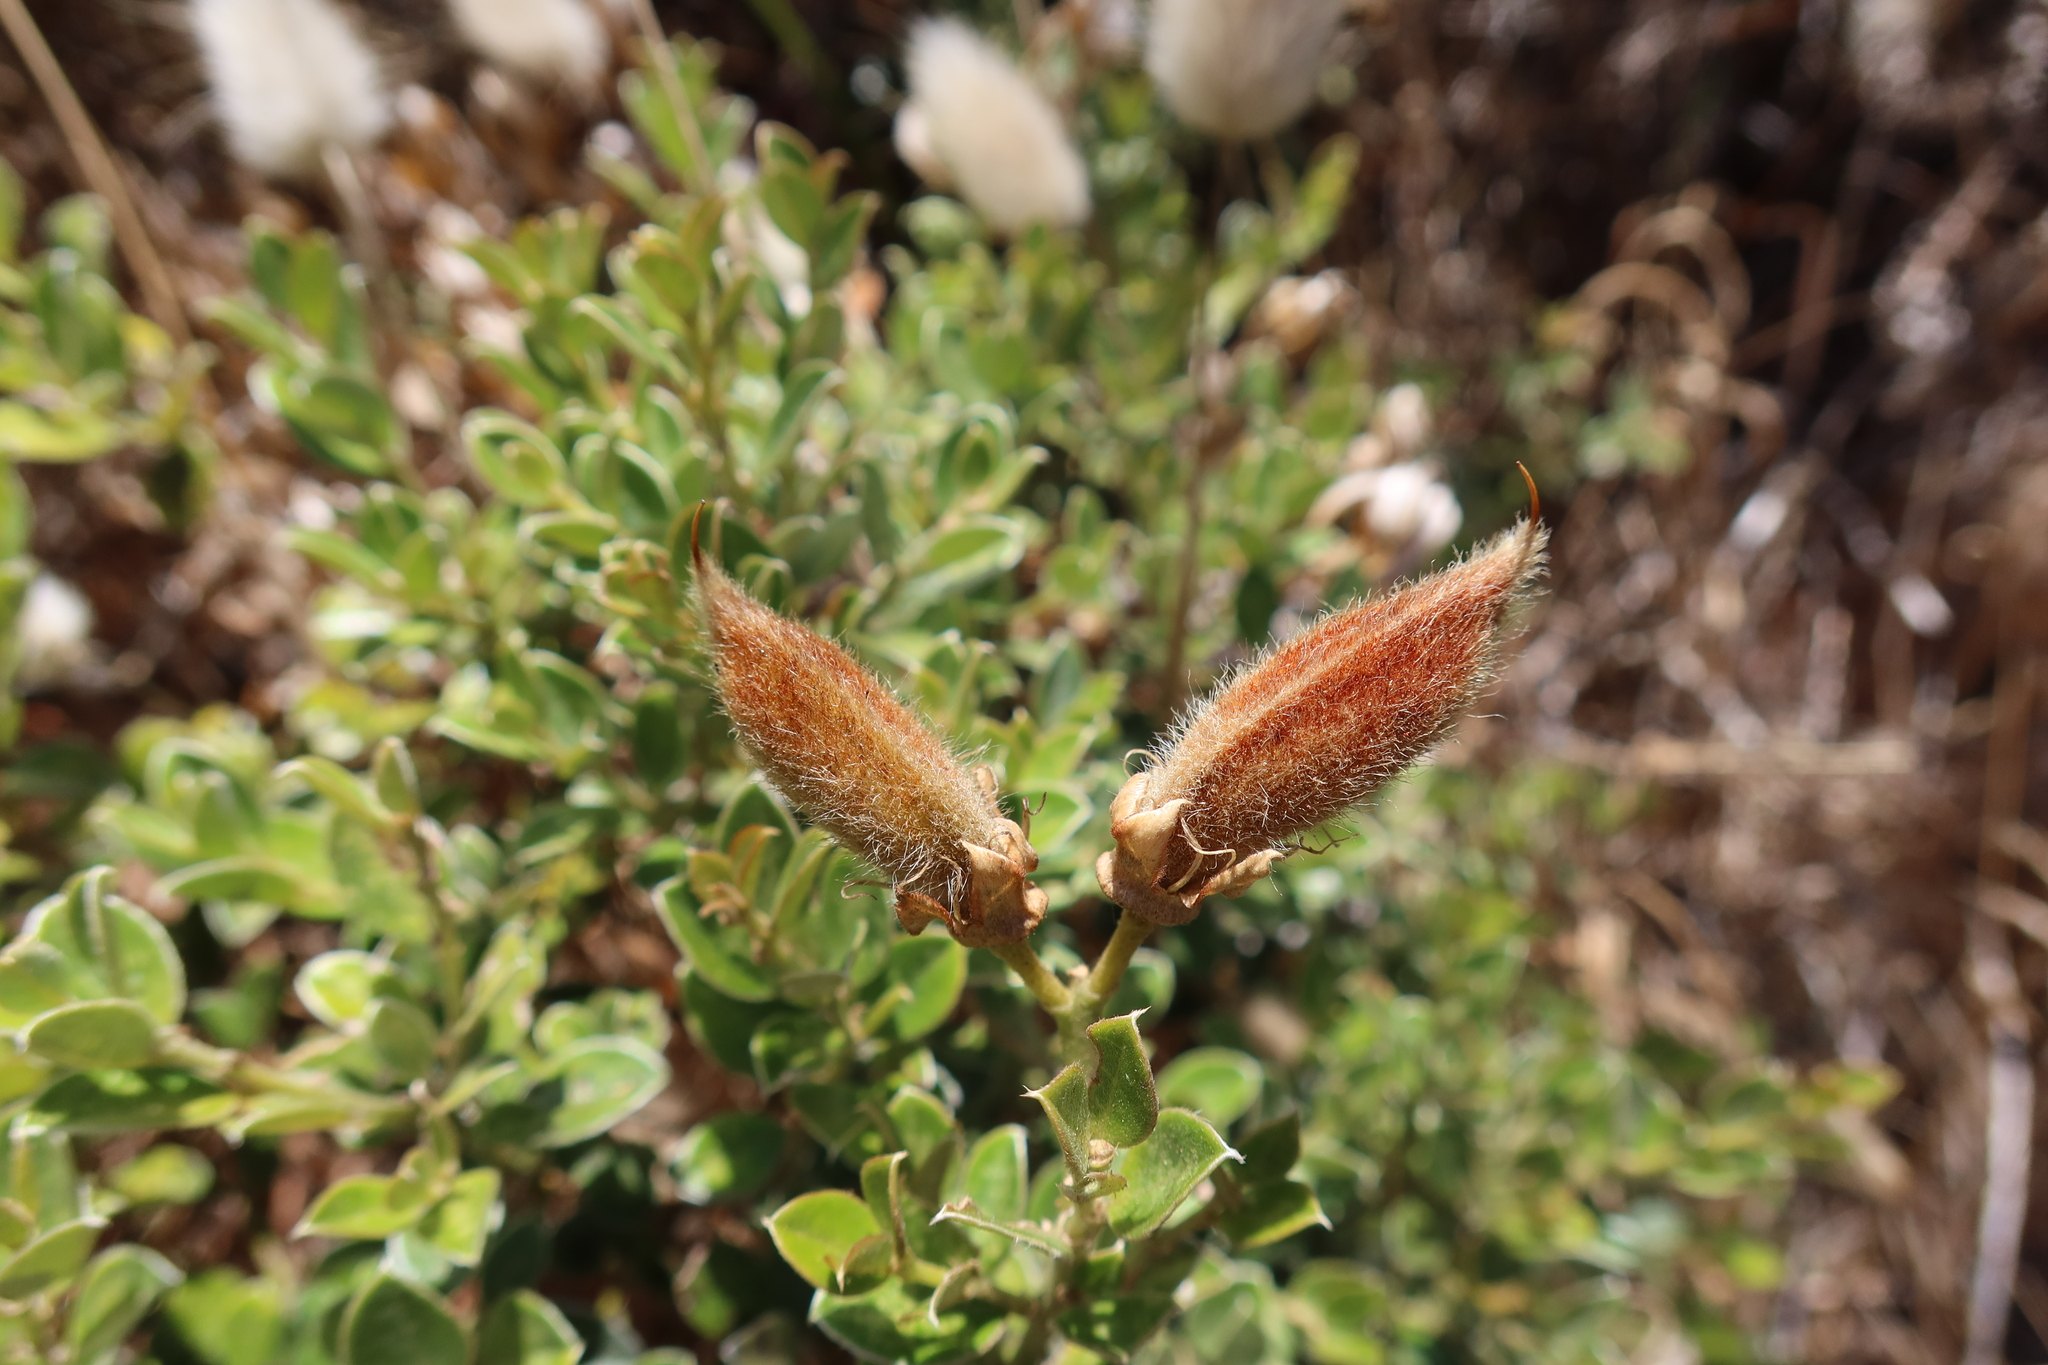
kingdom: Plantae
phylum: Tracheophyta
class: Magnoliopsida
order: Fabales
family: Fabaceae
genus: Podalyria
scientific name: Podalyria biflora
